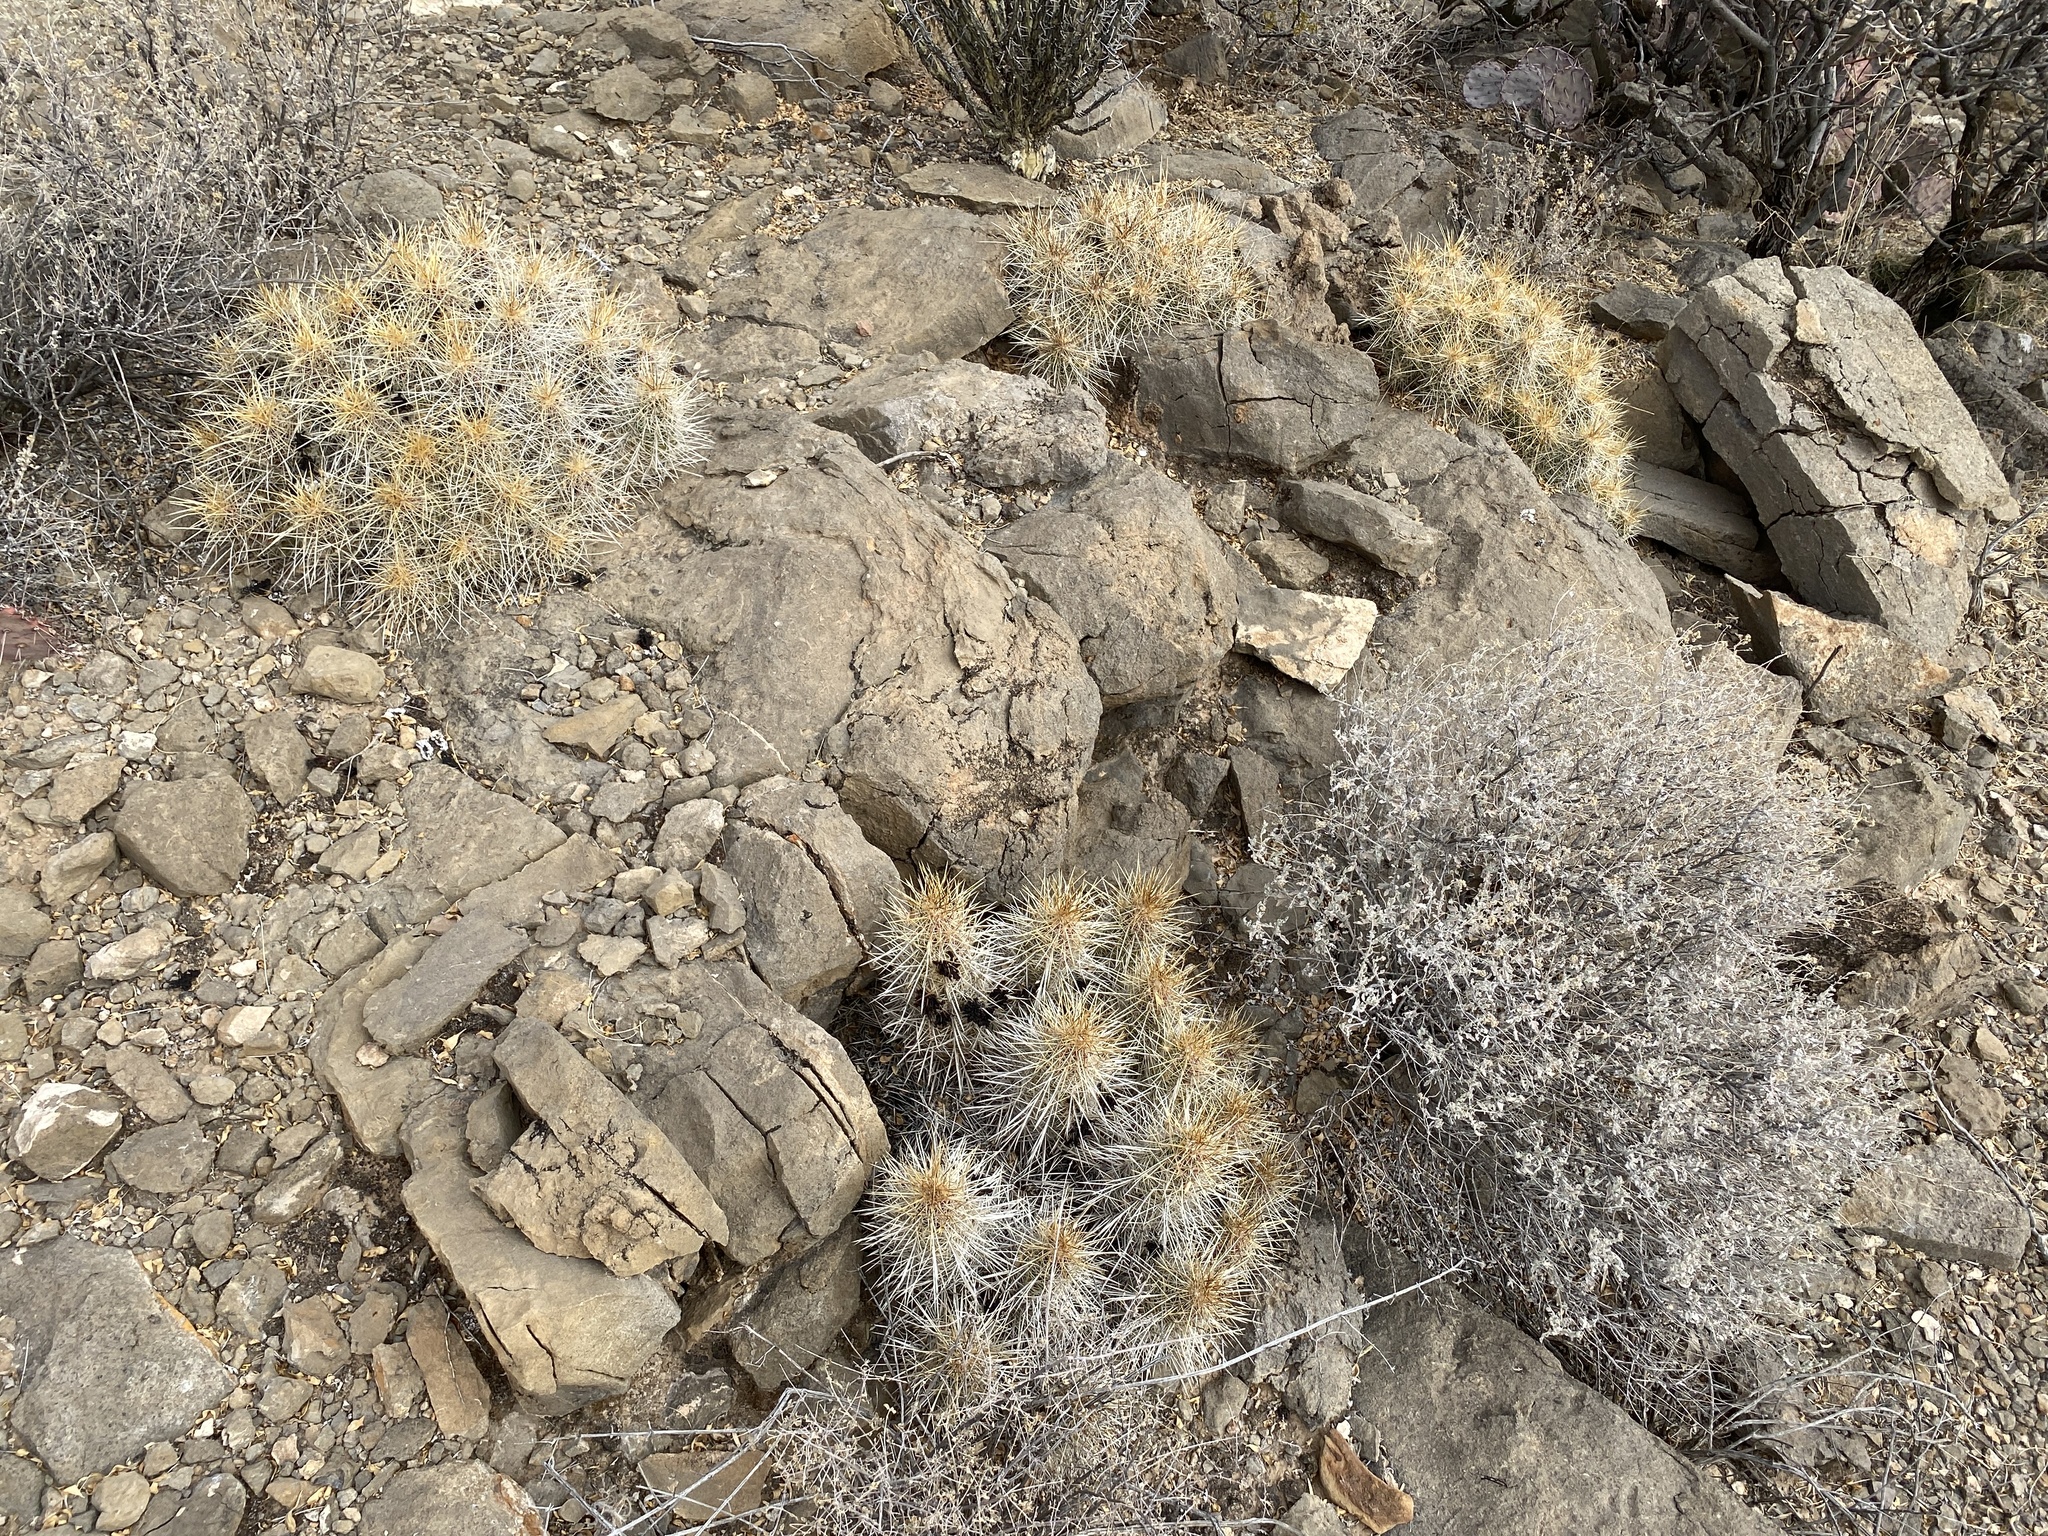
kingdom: Plantae
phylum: Tracheophyta
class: Magnoliopsida
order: Caryophyllales
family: Cactaceae
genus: Echinocereus
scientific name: Echinocereus stramineus
